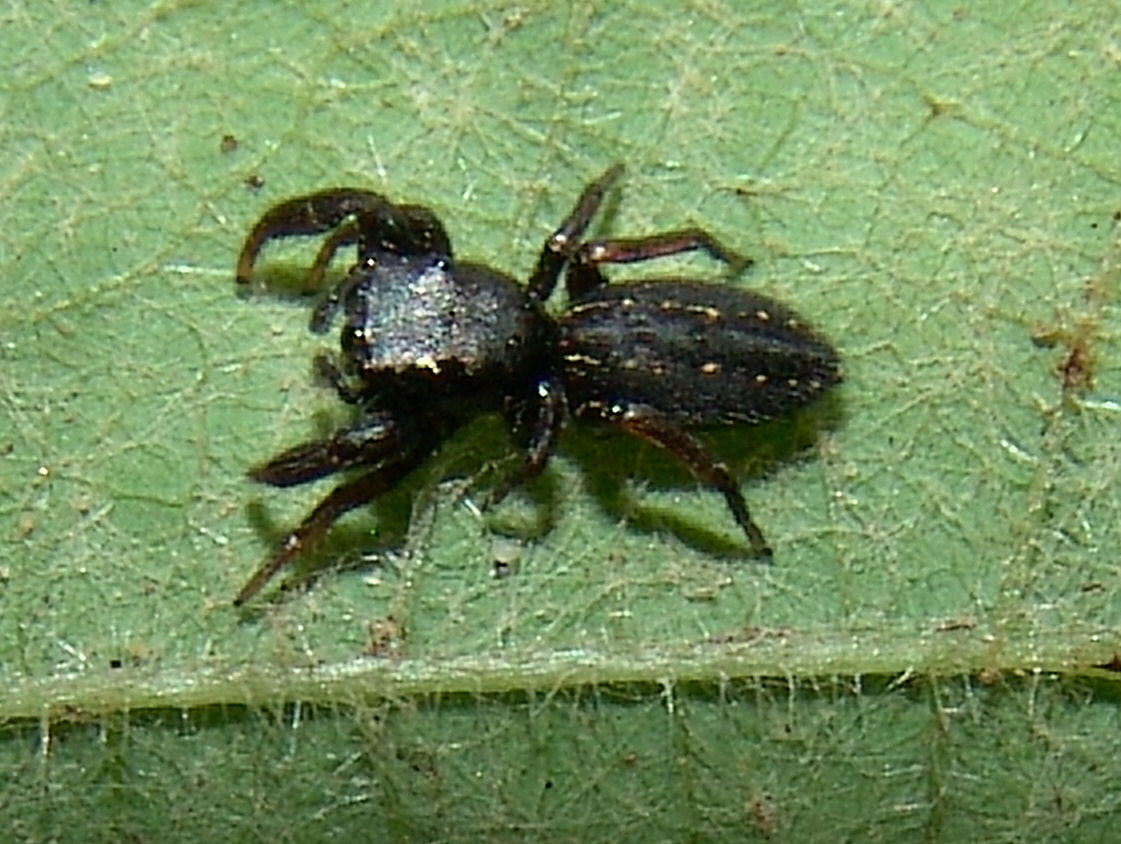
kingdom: Animalia
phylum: Arthropoda
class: Arachnida
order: Araneae
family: Salticidae
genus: Metacyrba
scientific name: Metacyrba taeniola
